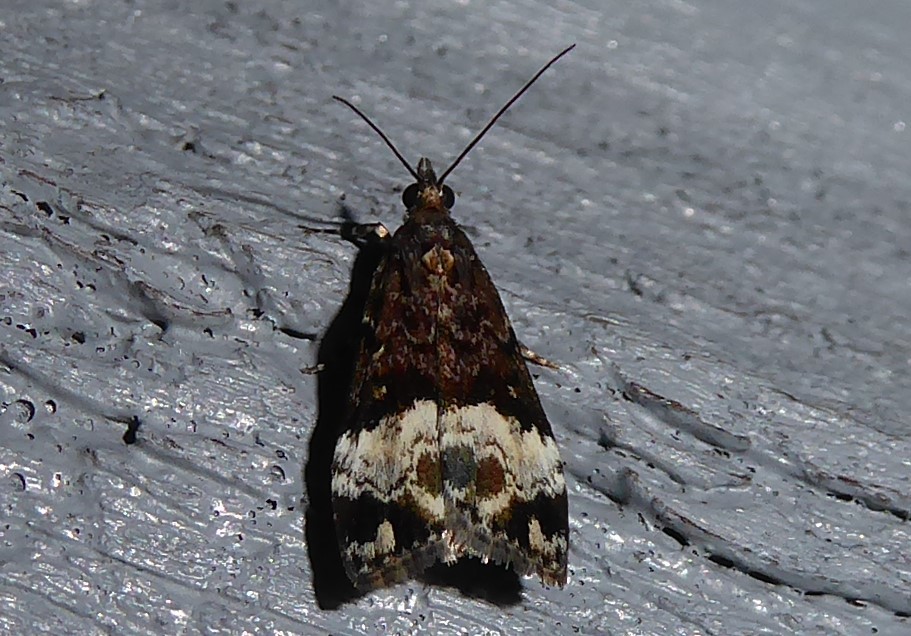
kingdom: Animalia
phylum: Arthropoda
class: Insecta
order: Lepidoptera
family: Crambidae
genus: Scoparia
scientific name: Scoparia minusculalis
